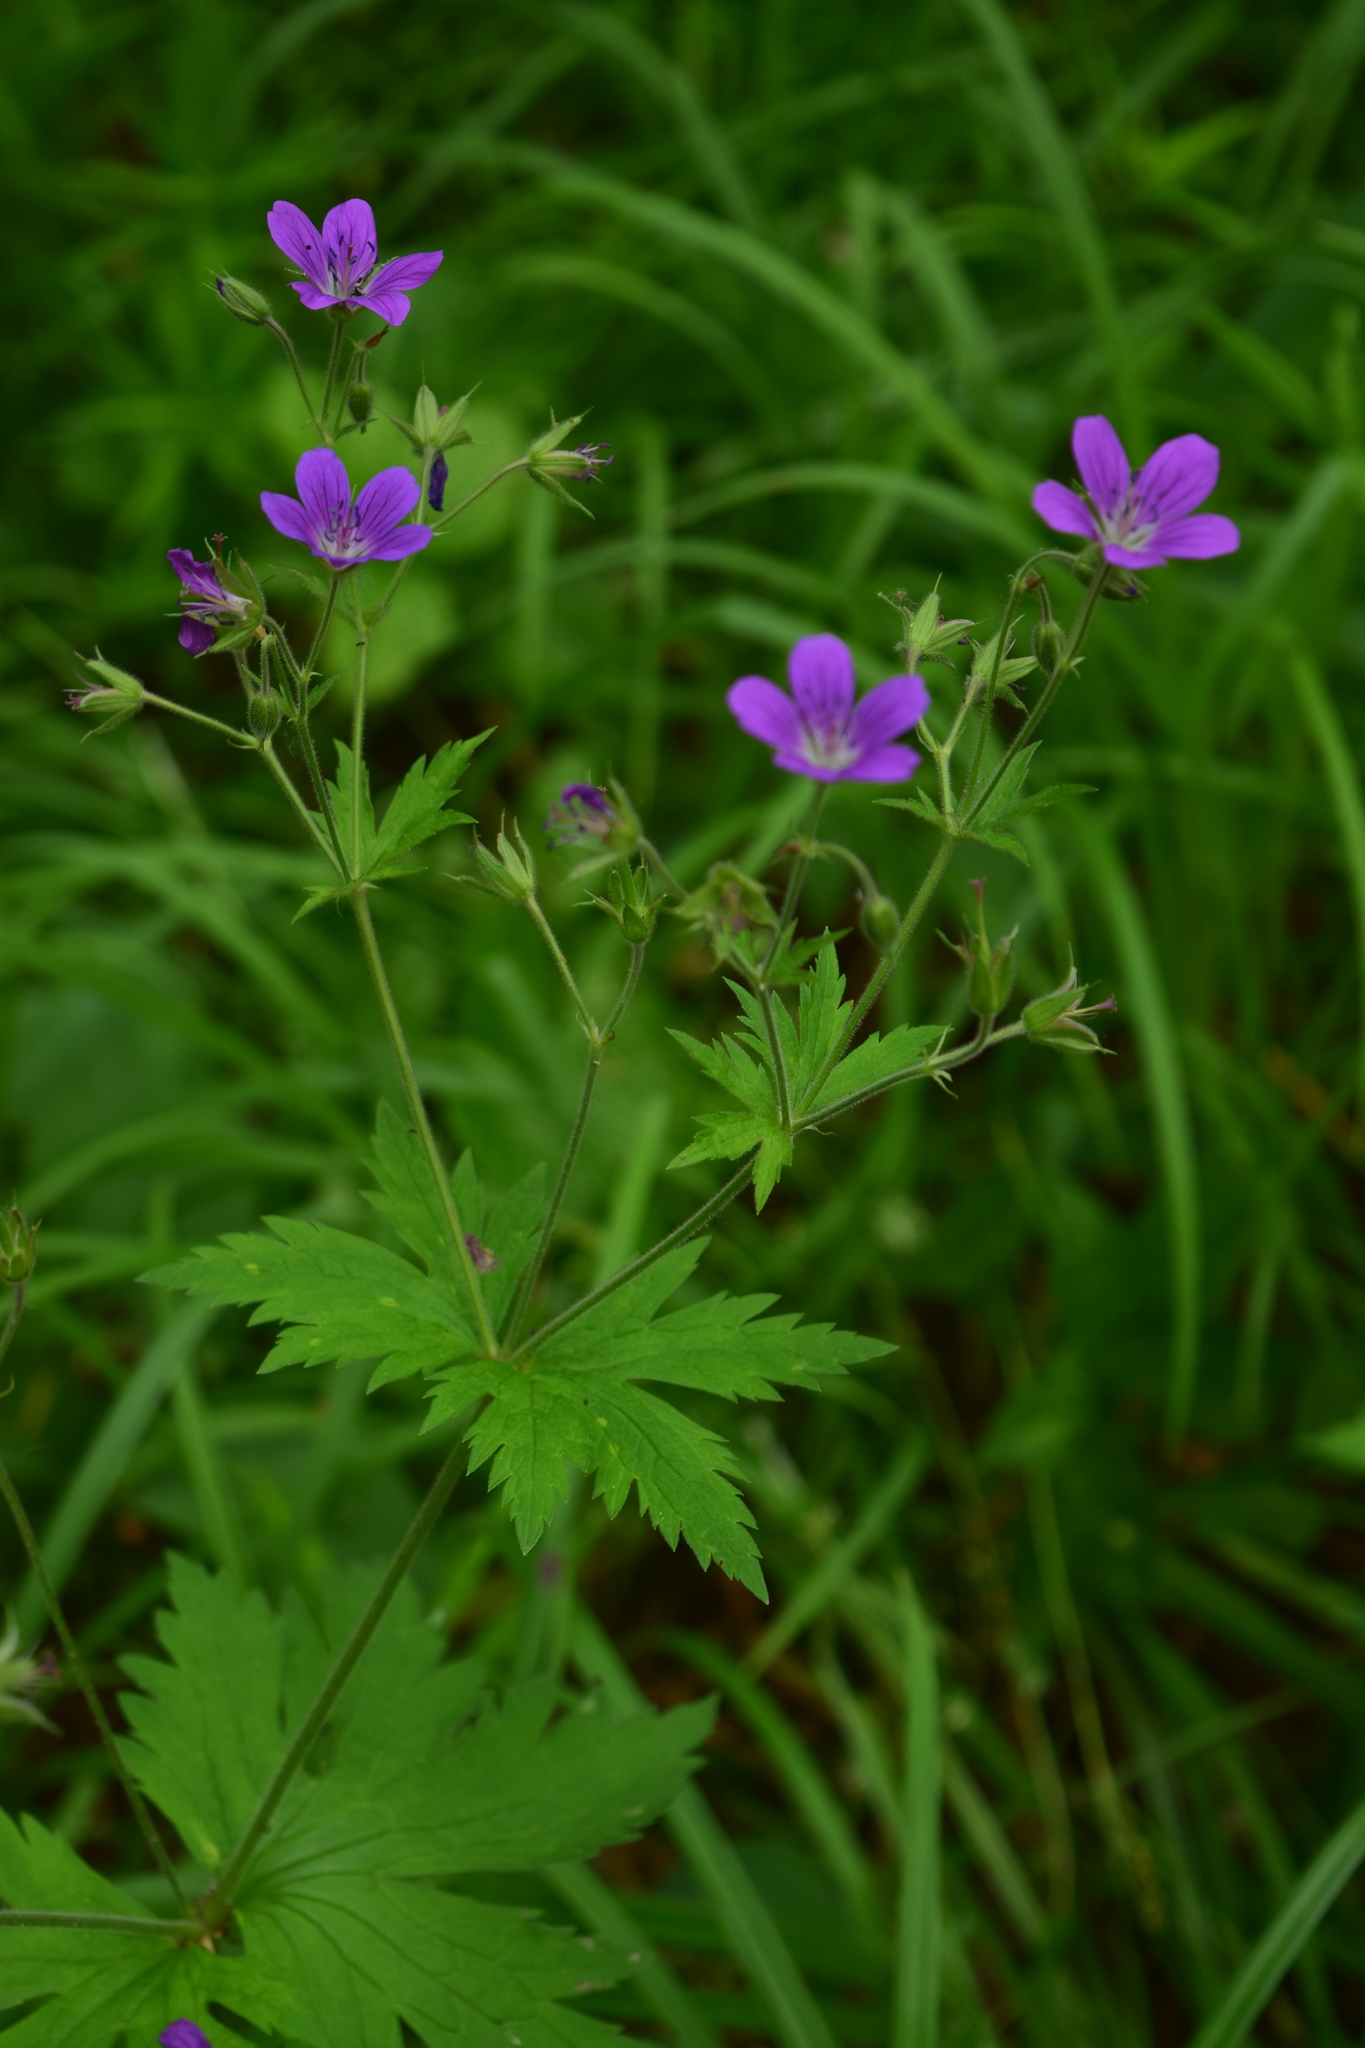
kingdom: Plantae
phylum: Tracheophyta
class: Magnoliopsida
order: Geraniales
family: Geraniaceae
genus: Geranium
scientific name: Geranium sylvaticum
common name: Wood crane's-bill
